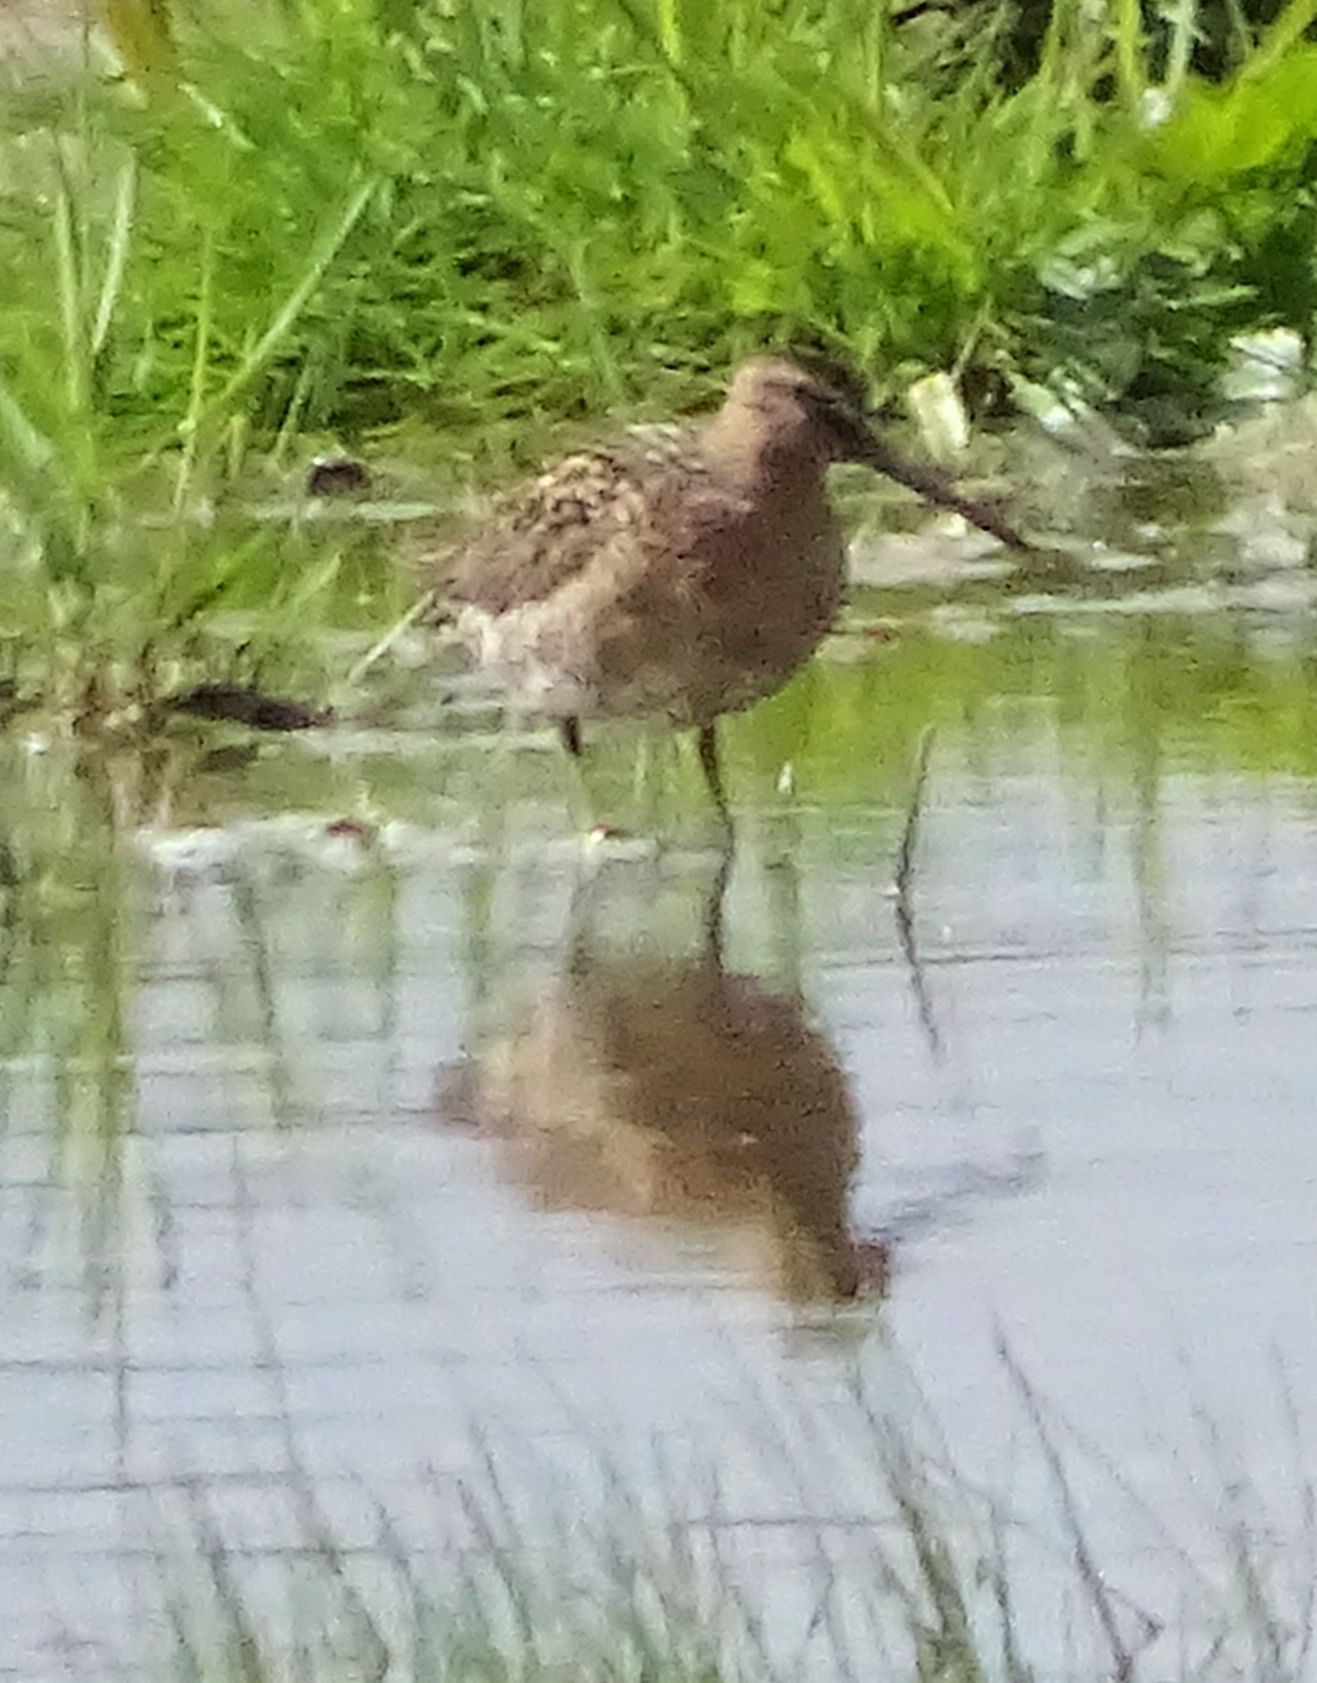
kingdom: Animalia
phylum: Chordata
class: Aves
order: Charadriiformes
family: Scolopacidae
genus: Limnodromus
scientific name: Limnodromus
